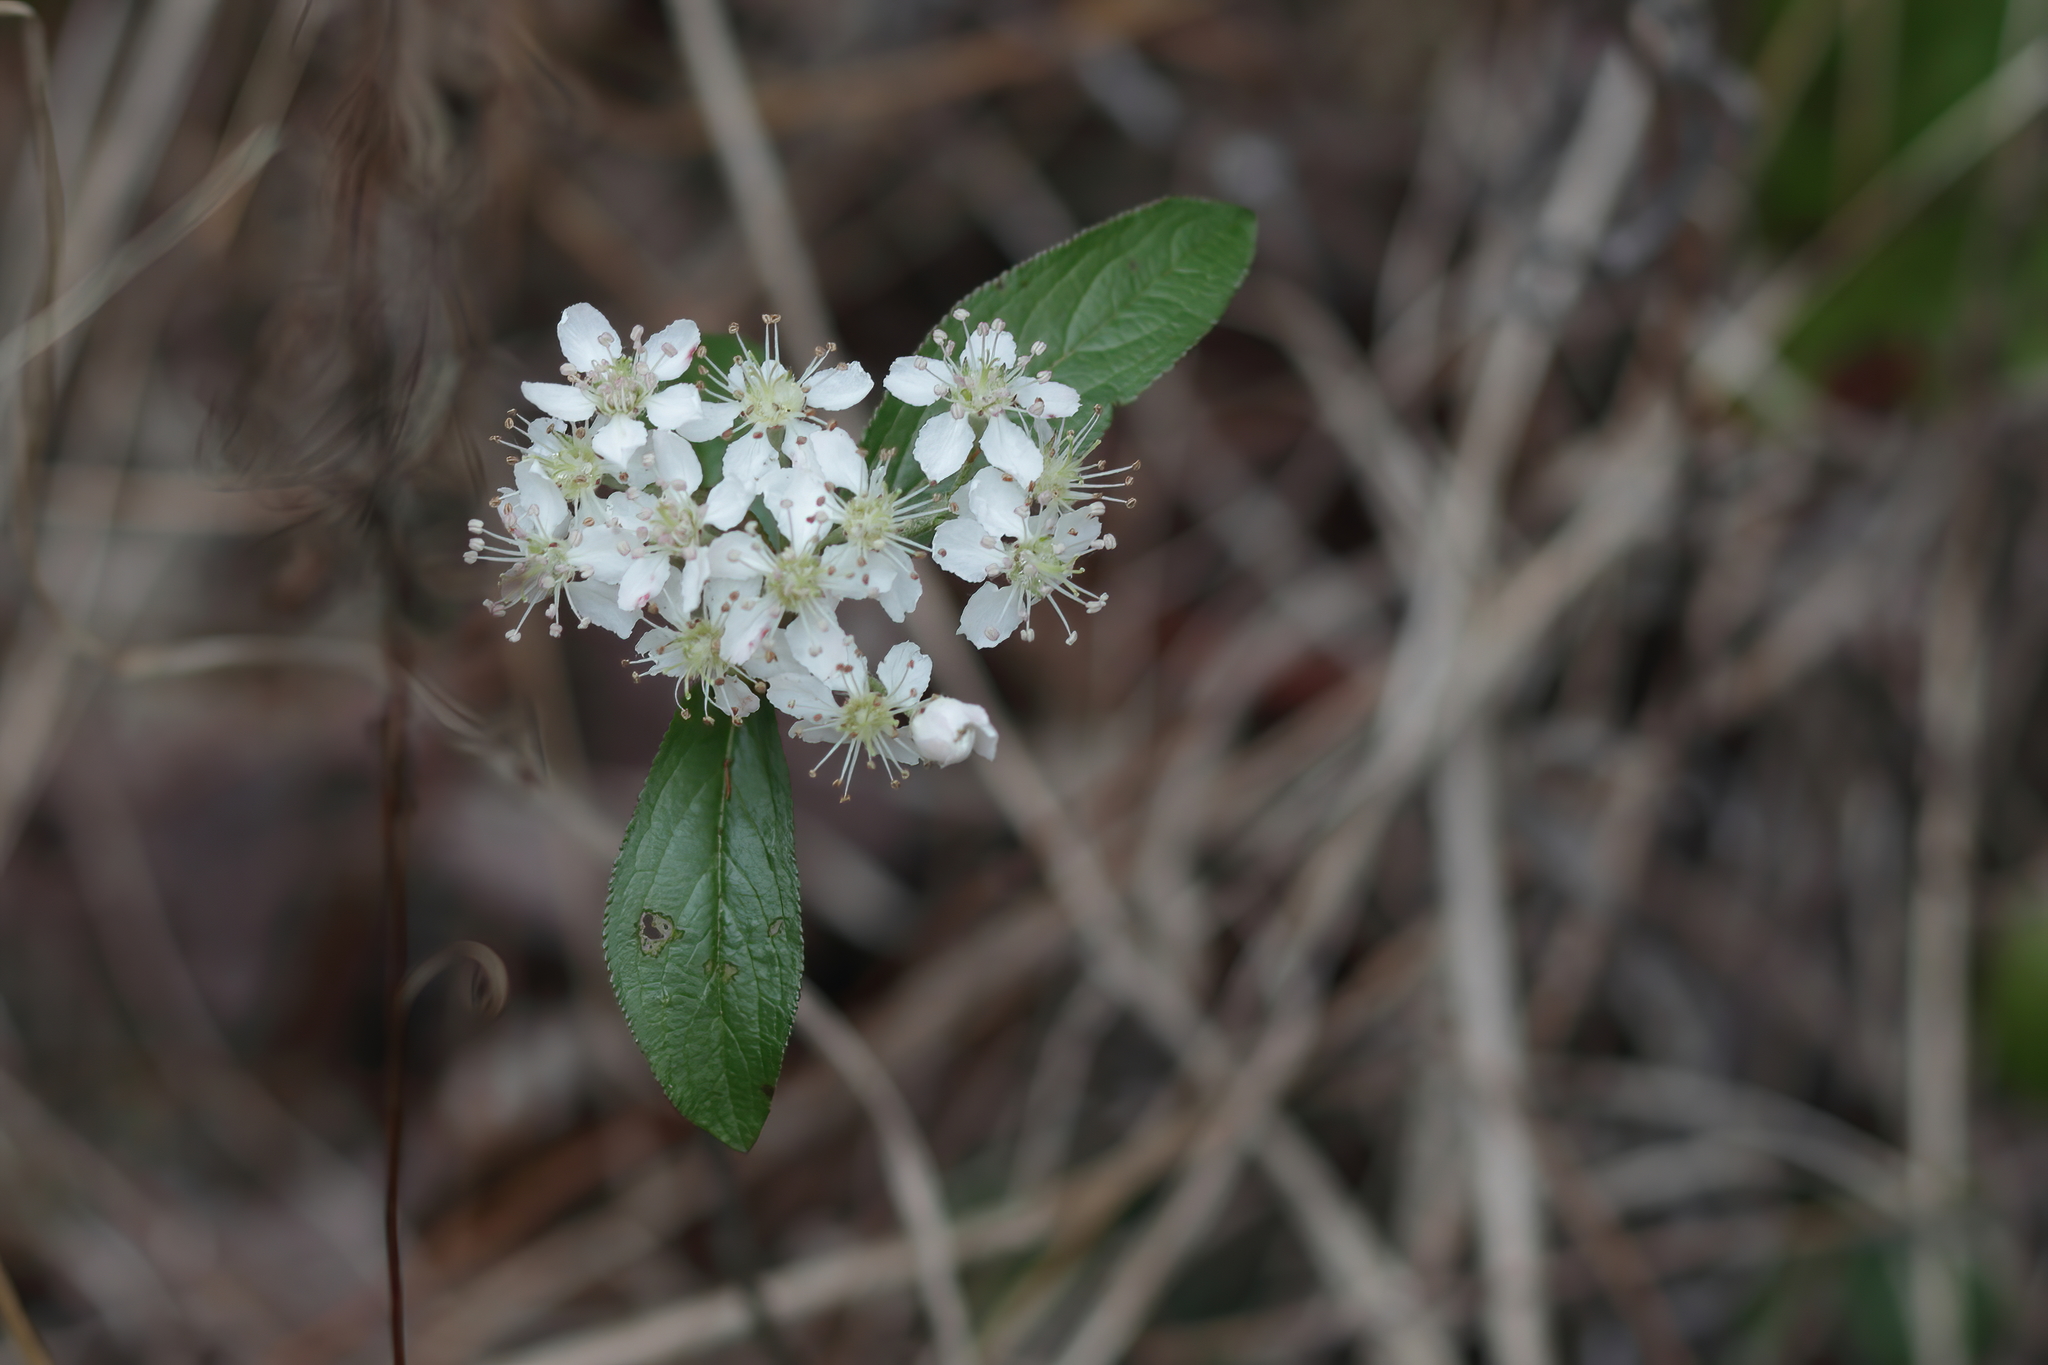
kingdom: Plantae
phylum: Tracheophyta
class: Magnoliopsida
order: Rosales
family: Rosaceae
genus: Aronia
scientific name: Aronia arbutifolia
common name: Red chokeberry
